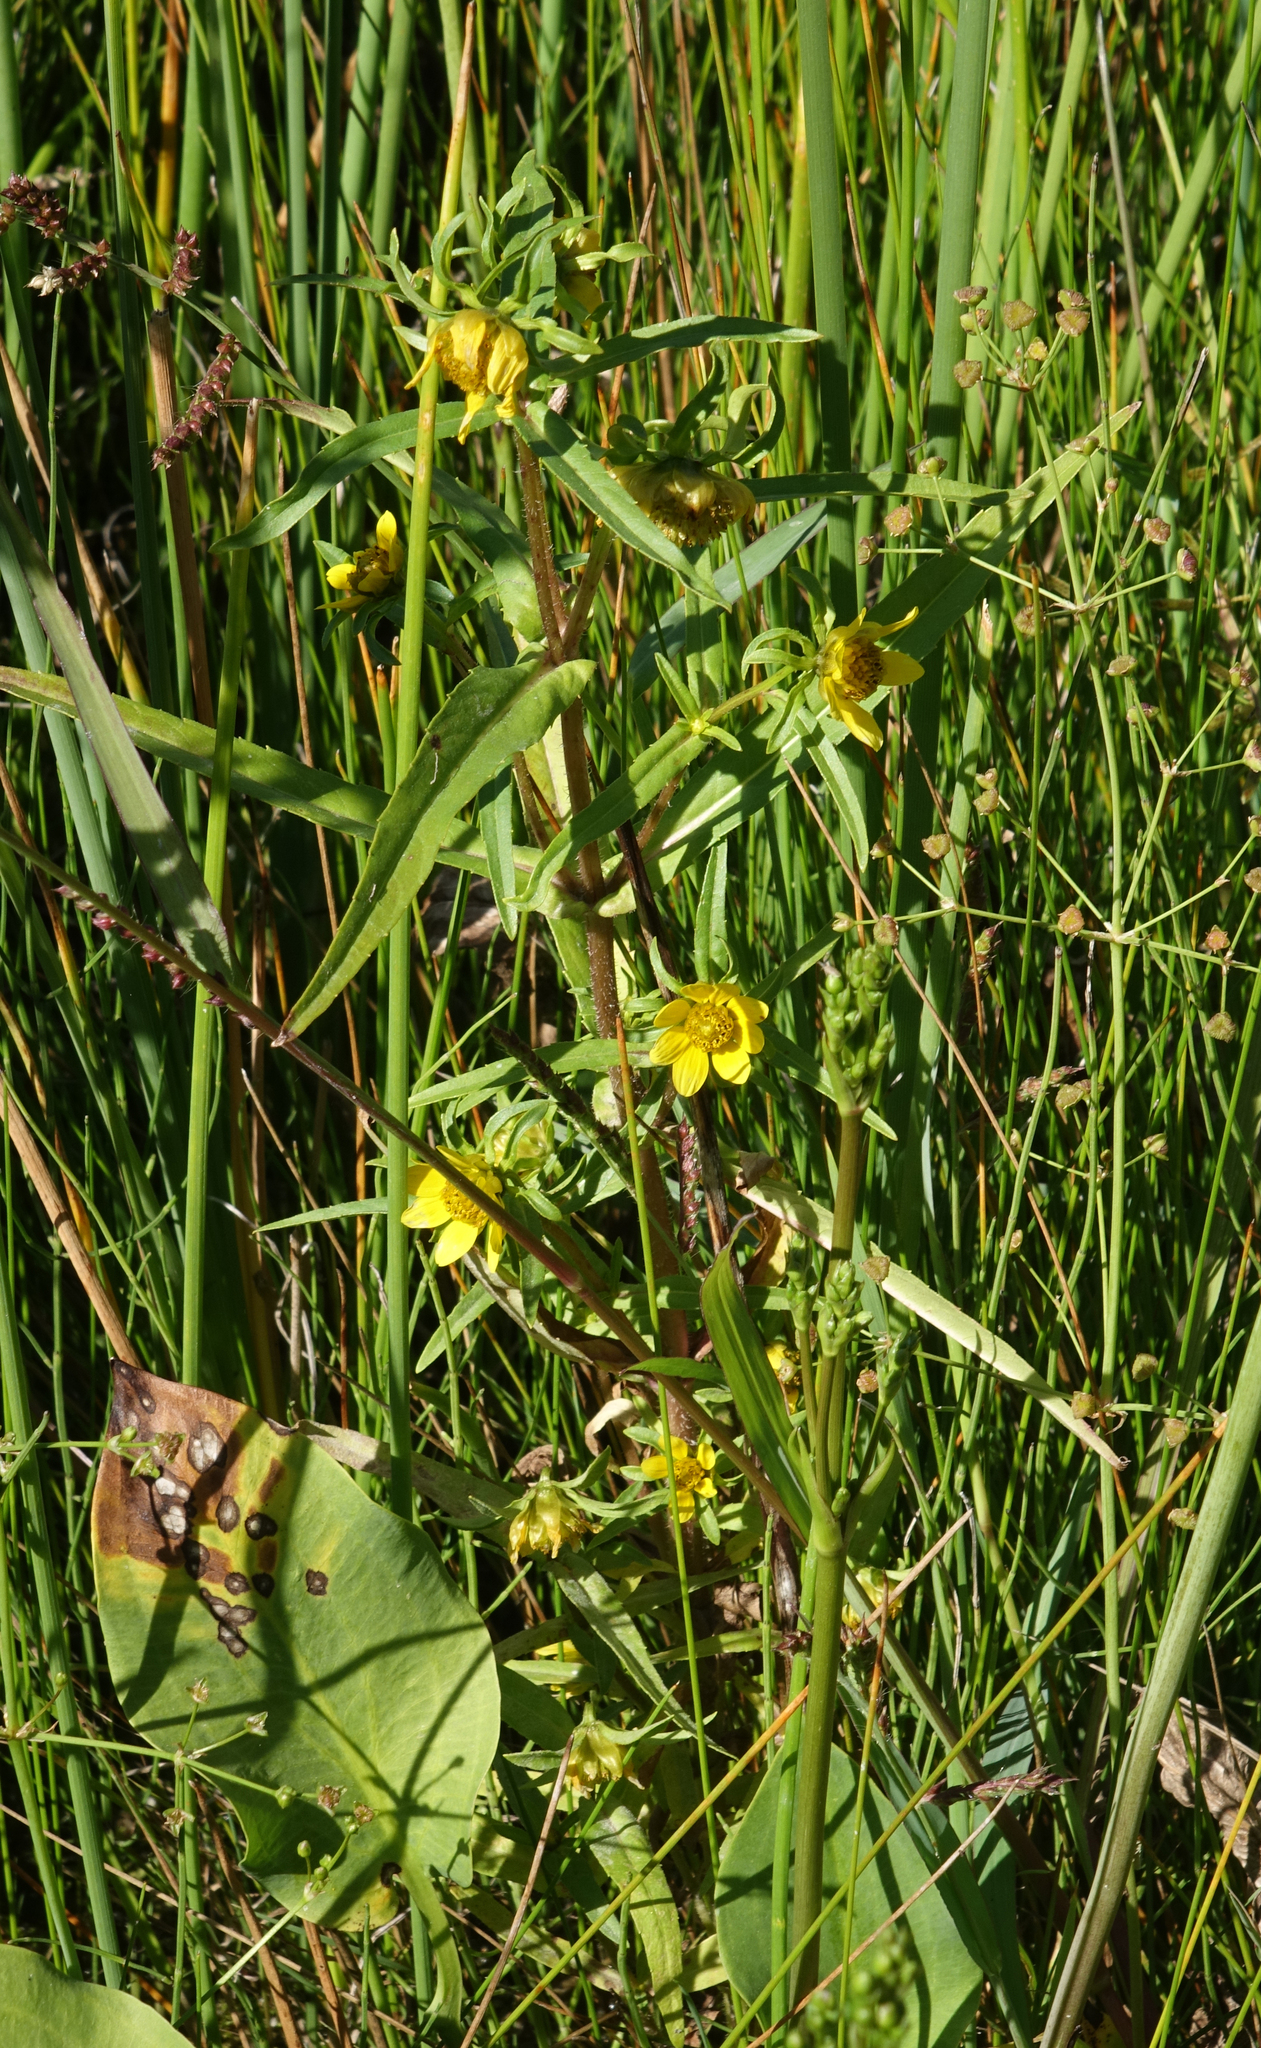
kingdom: Plantae
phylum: Tracheophyta
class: Magnoliopsida
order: Asterales
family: Asteraceae
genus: Bidens
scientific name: Bidens cernua
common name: Nodding bur-marigold
